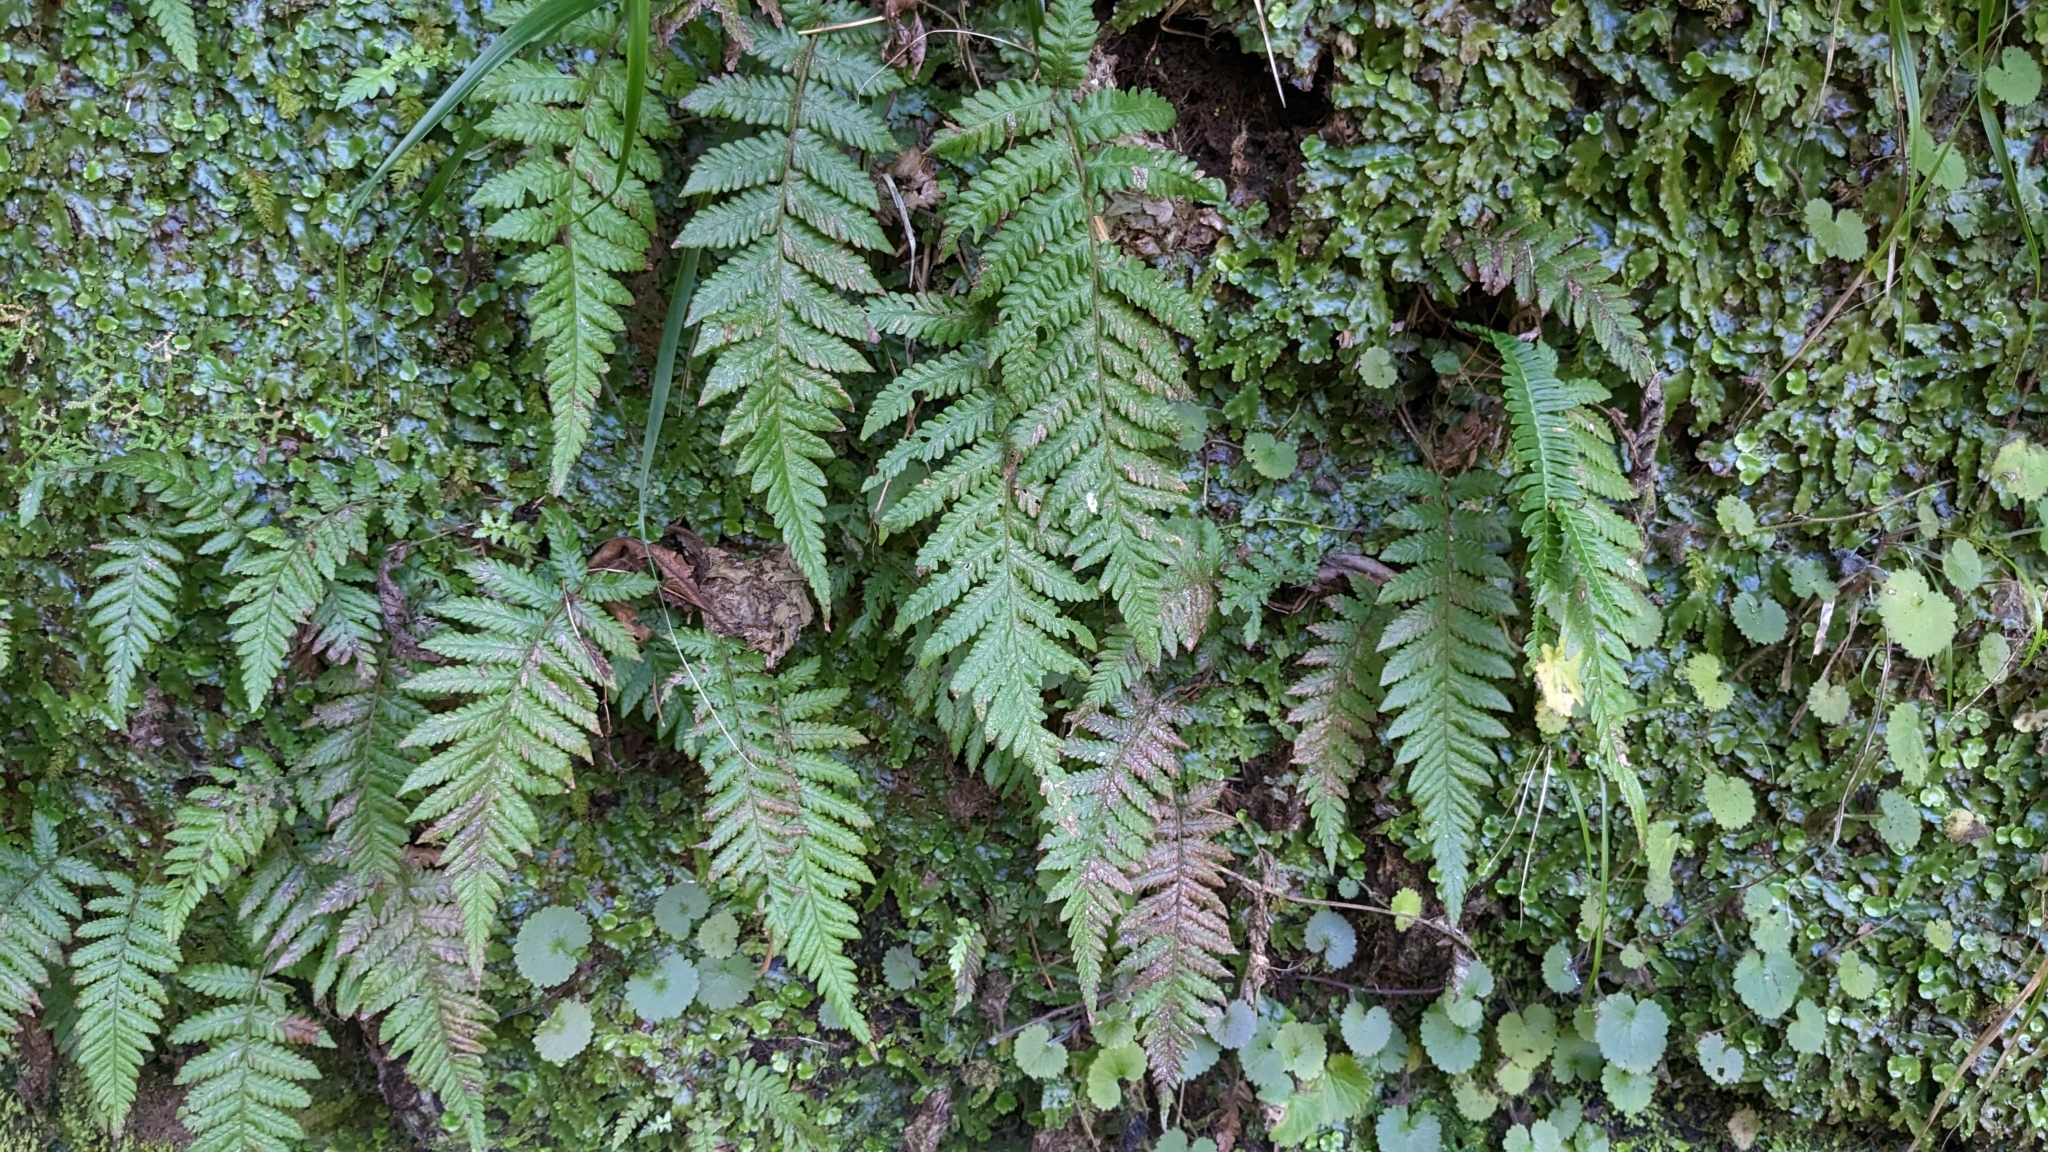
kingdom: Plantae
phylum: Tracheophyta
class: Polypodiopsida
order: Polypodiales
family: Thelypteridaceae
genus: Leptogramma
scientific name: Leptogramma pozoi
